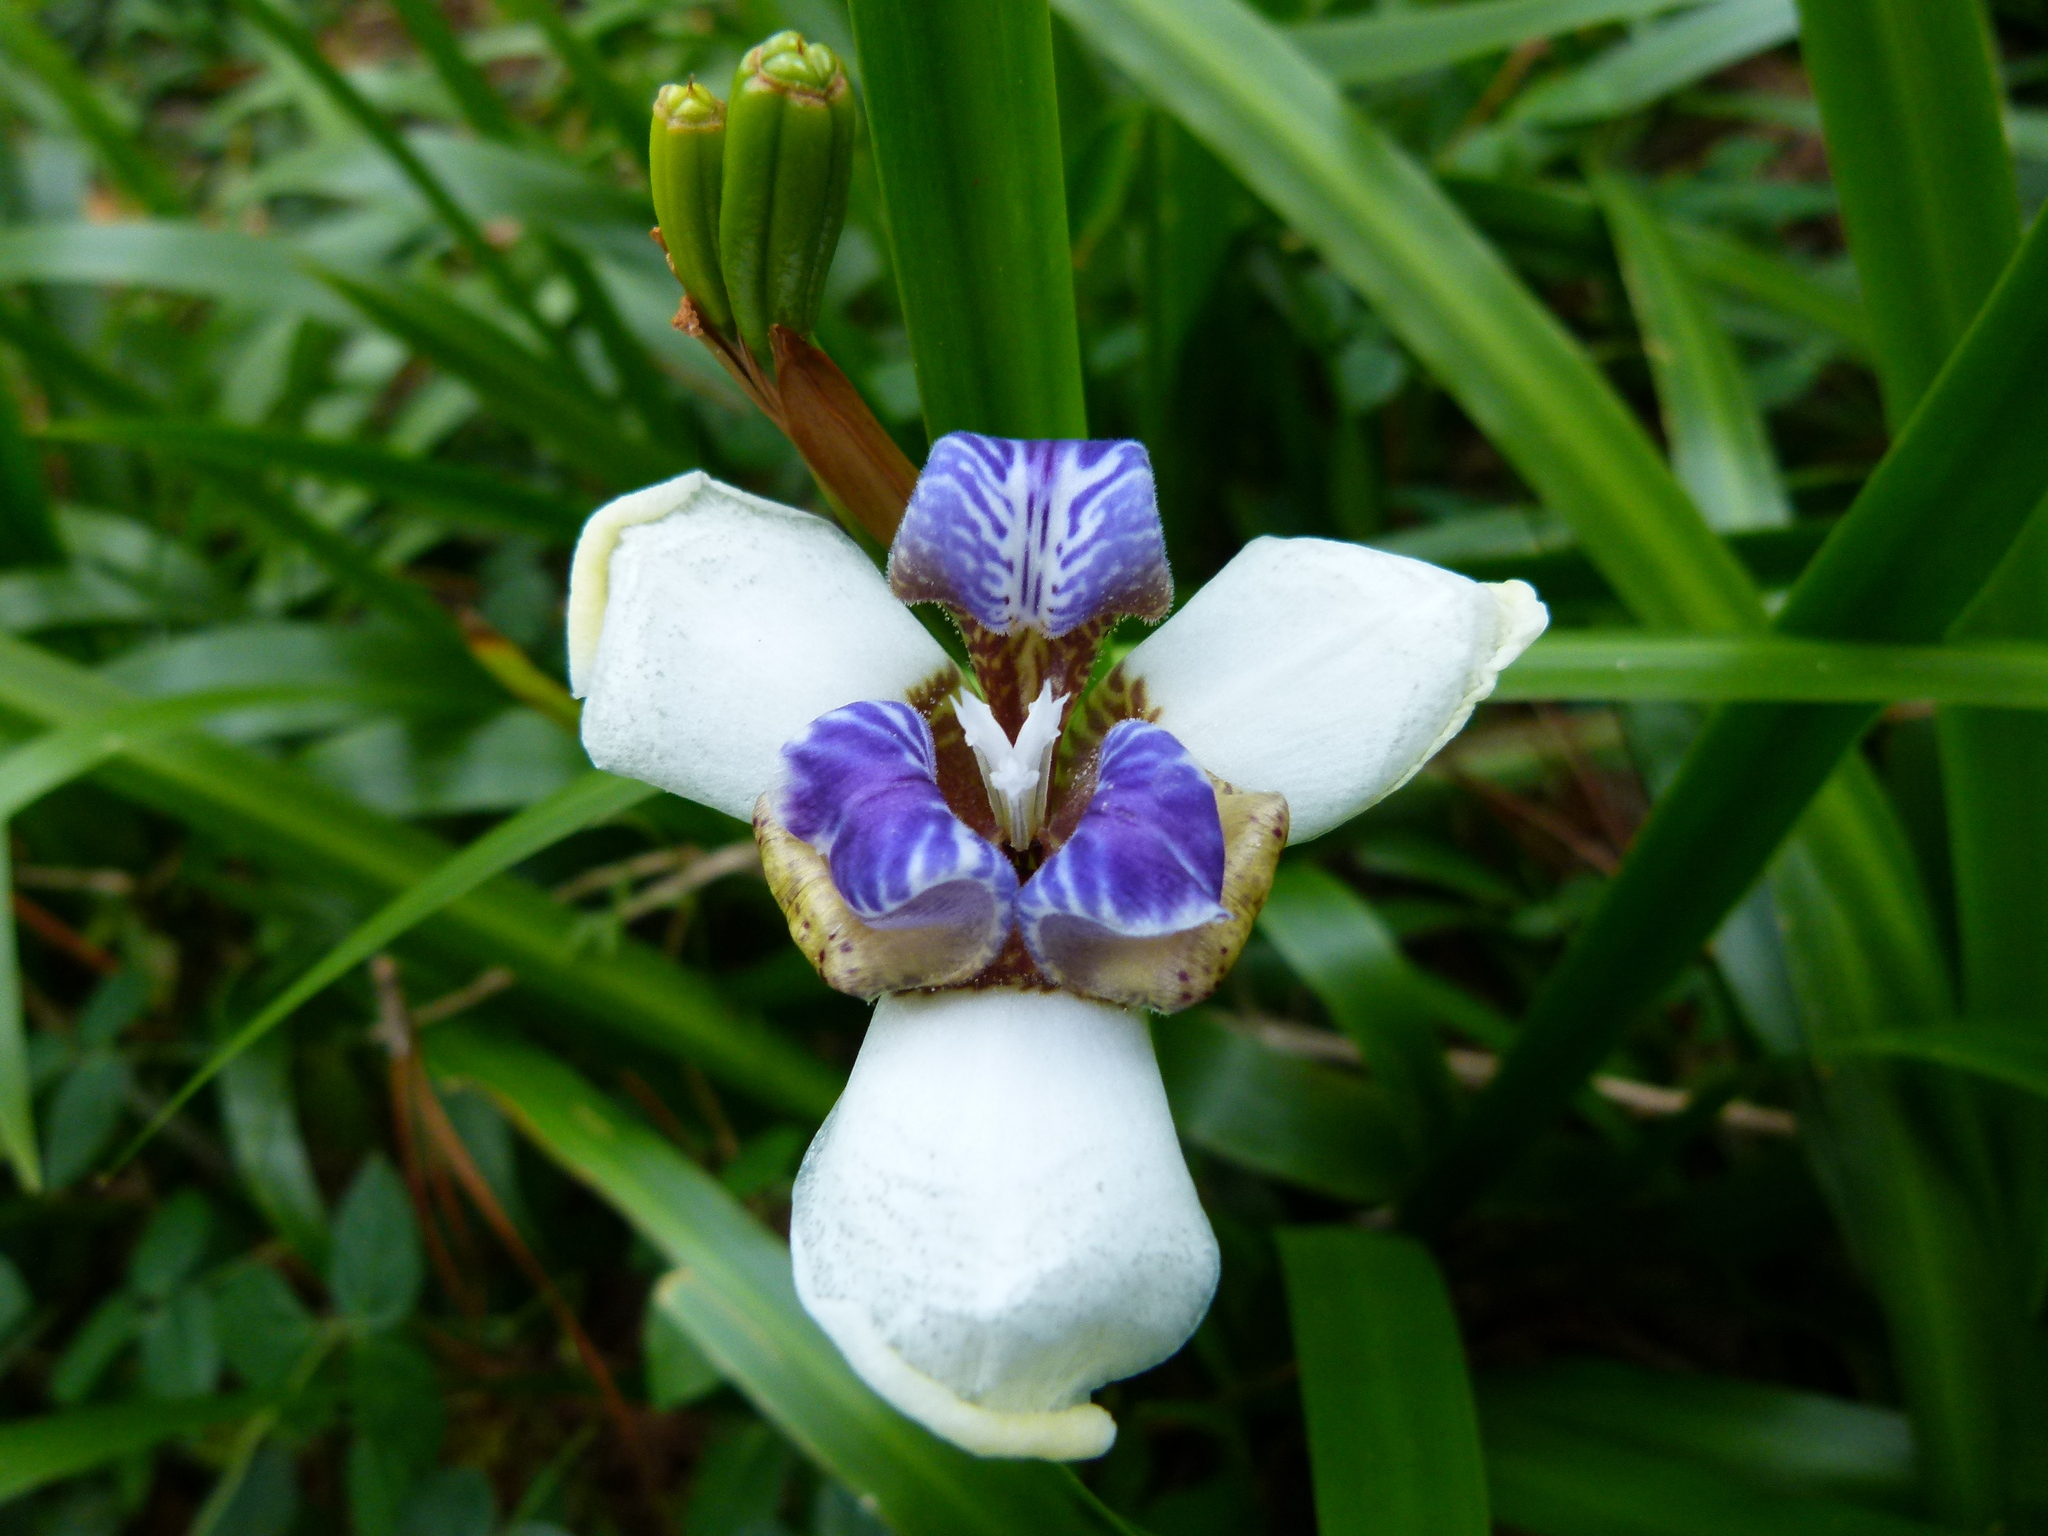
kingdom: Plantae
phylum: Tracheophyta
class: Liliopsida
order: Asparagales
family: Iridaceae
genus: Trimezia
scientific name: Trimezia gracilis
